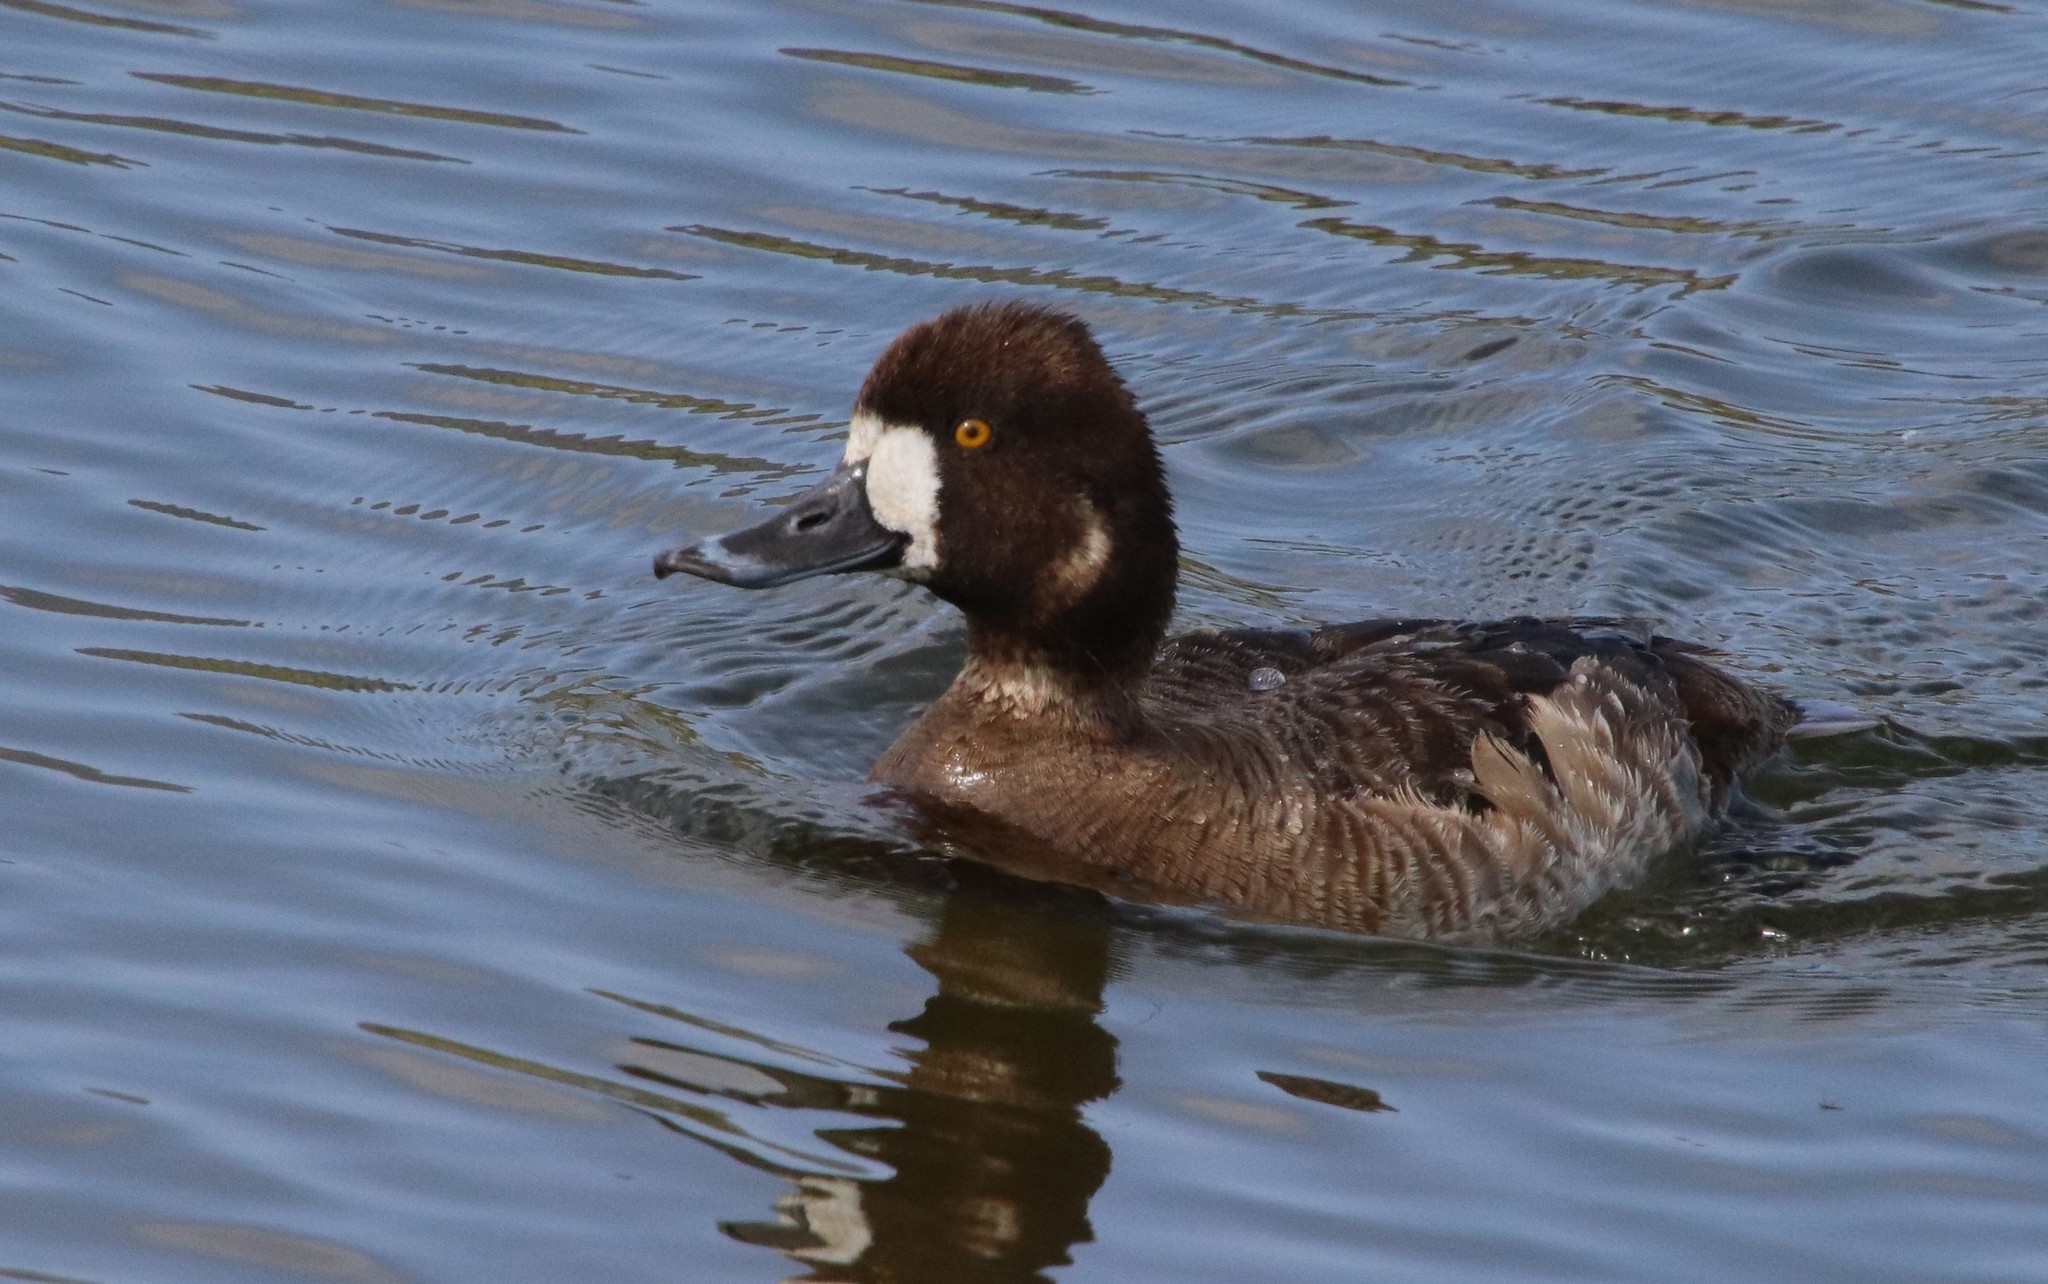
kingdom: Animalia
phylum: Chordata
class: Aves
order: Anseriformes
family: Anatidae
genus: Aythya
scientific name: Aythya affinis
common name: Lesser scaup
